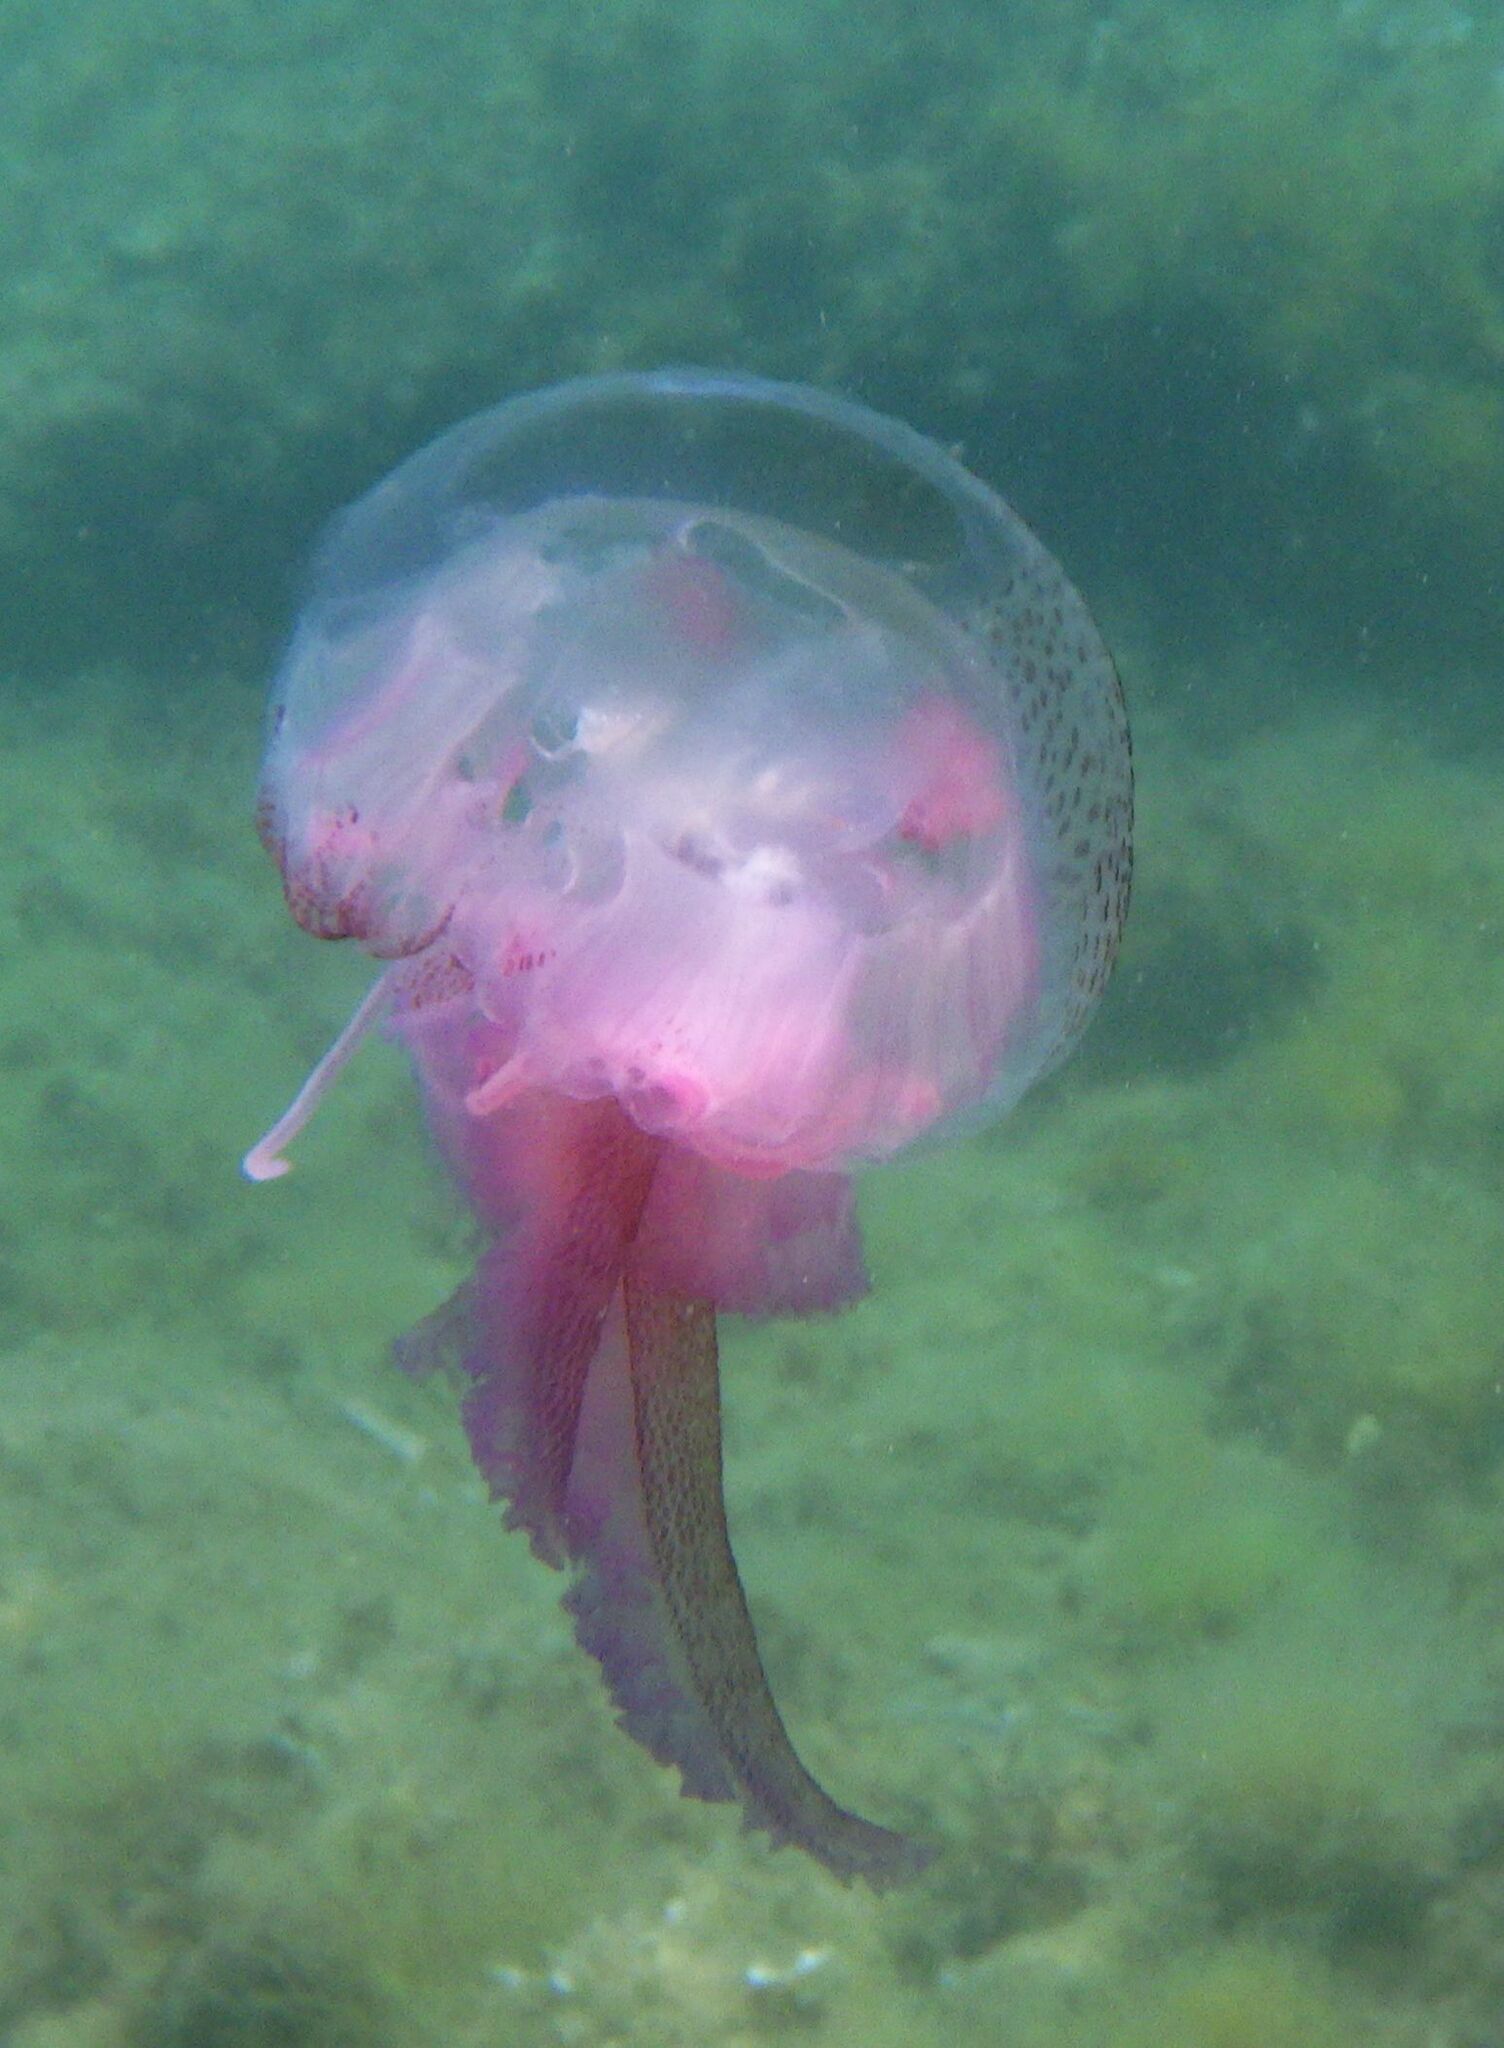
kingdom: Animalia
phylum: Cnidaria
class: Scyphozoa
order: Semaeostomeae
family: Pelagiidae
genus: Pelagia
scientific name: Pelagia noctiluca
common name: Mauve stinger
